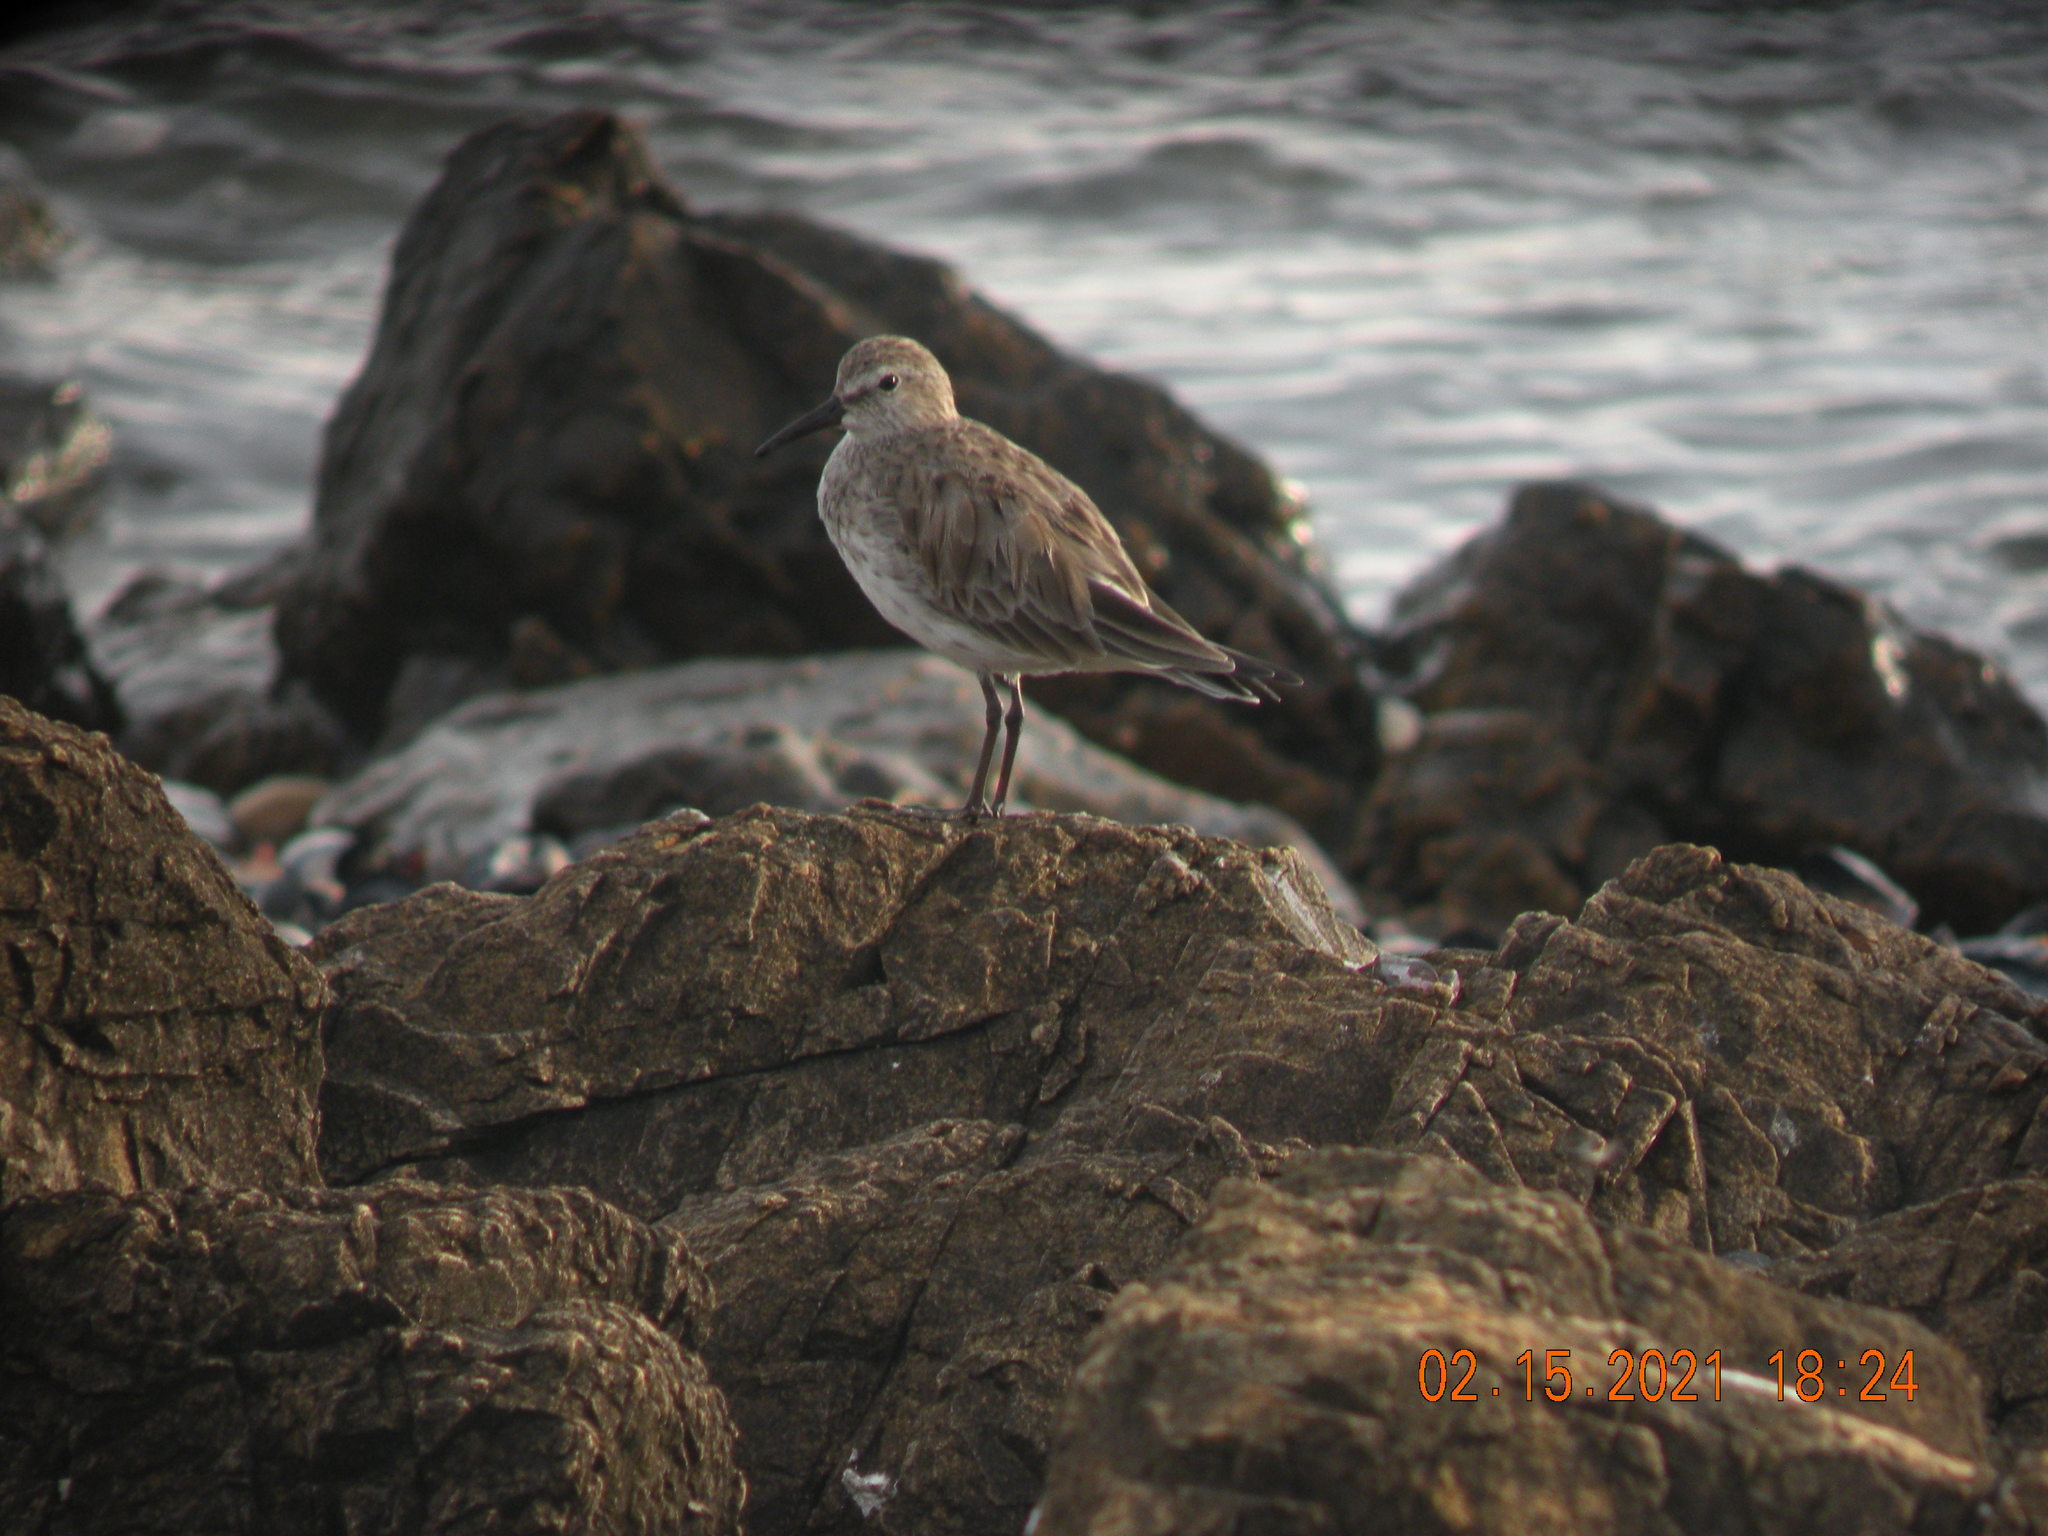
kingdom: Animalia
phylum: Chordata
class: Aves
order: Charadriiformes
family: Scolopacidae
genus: Calidris
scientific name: Calidris fuscicollis
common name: White-rumped sandpiper
